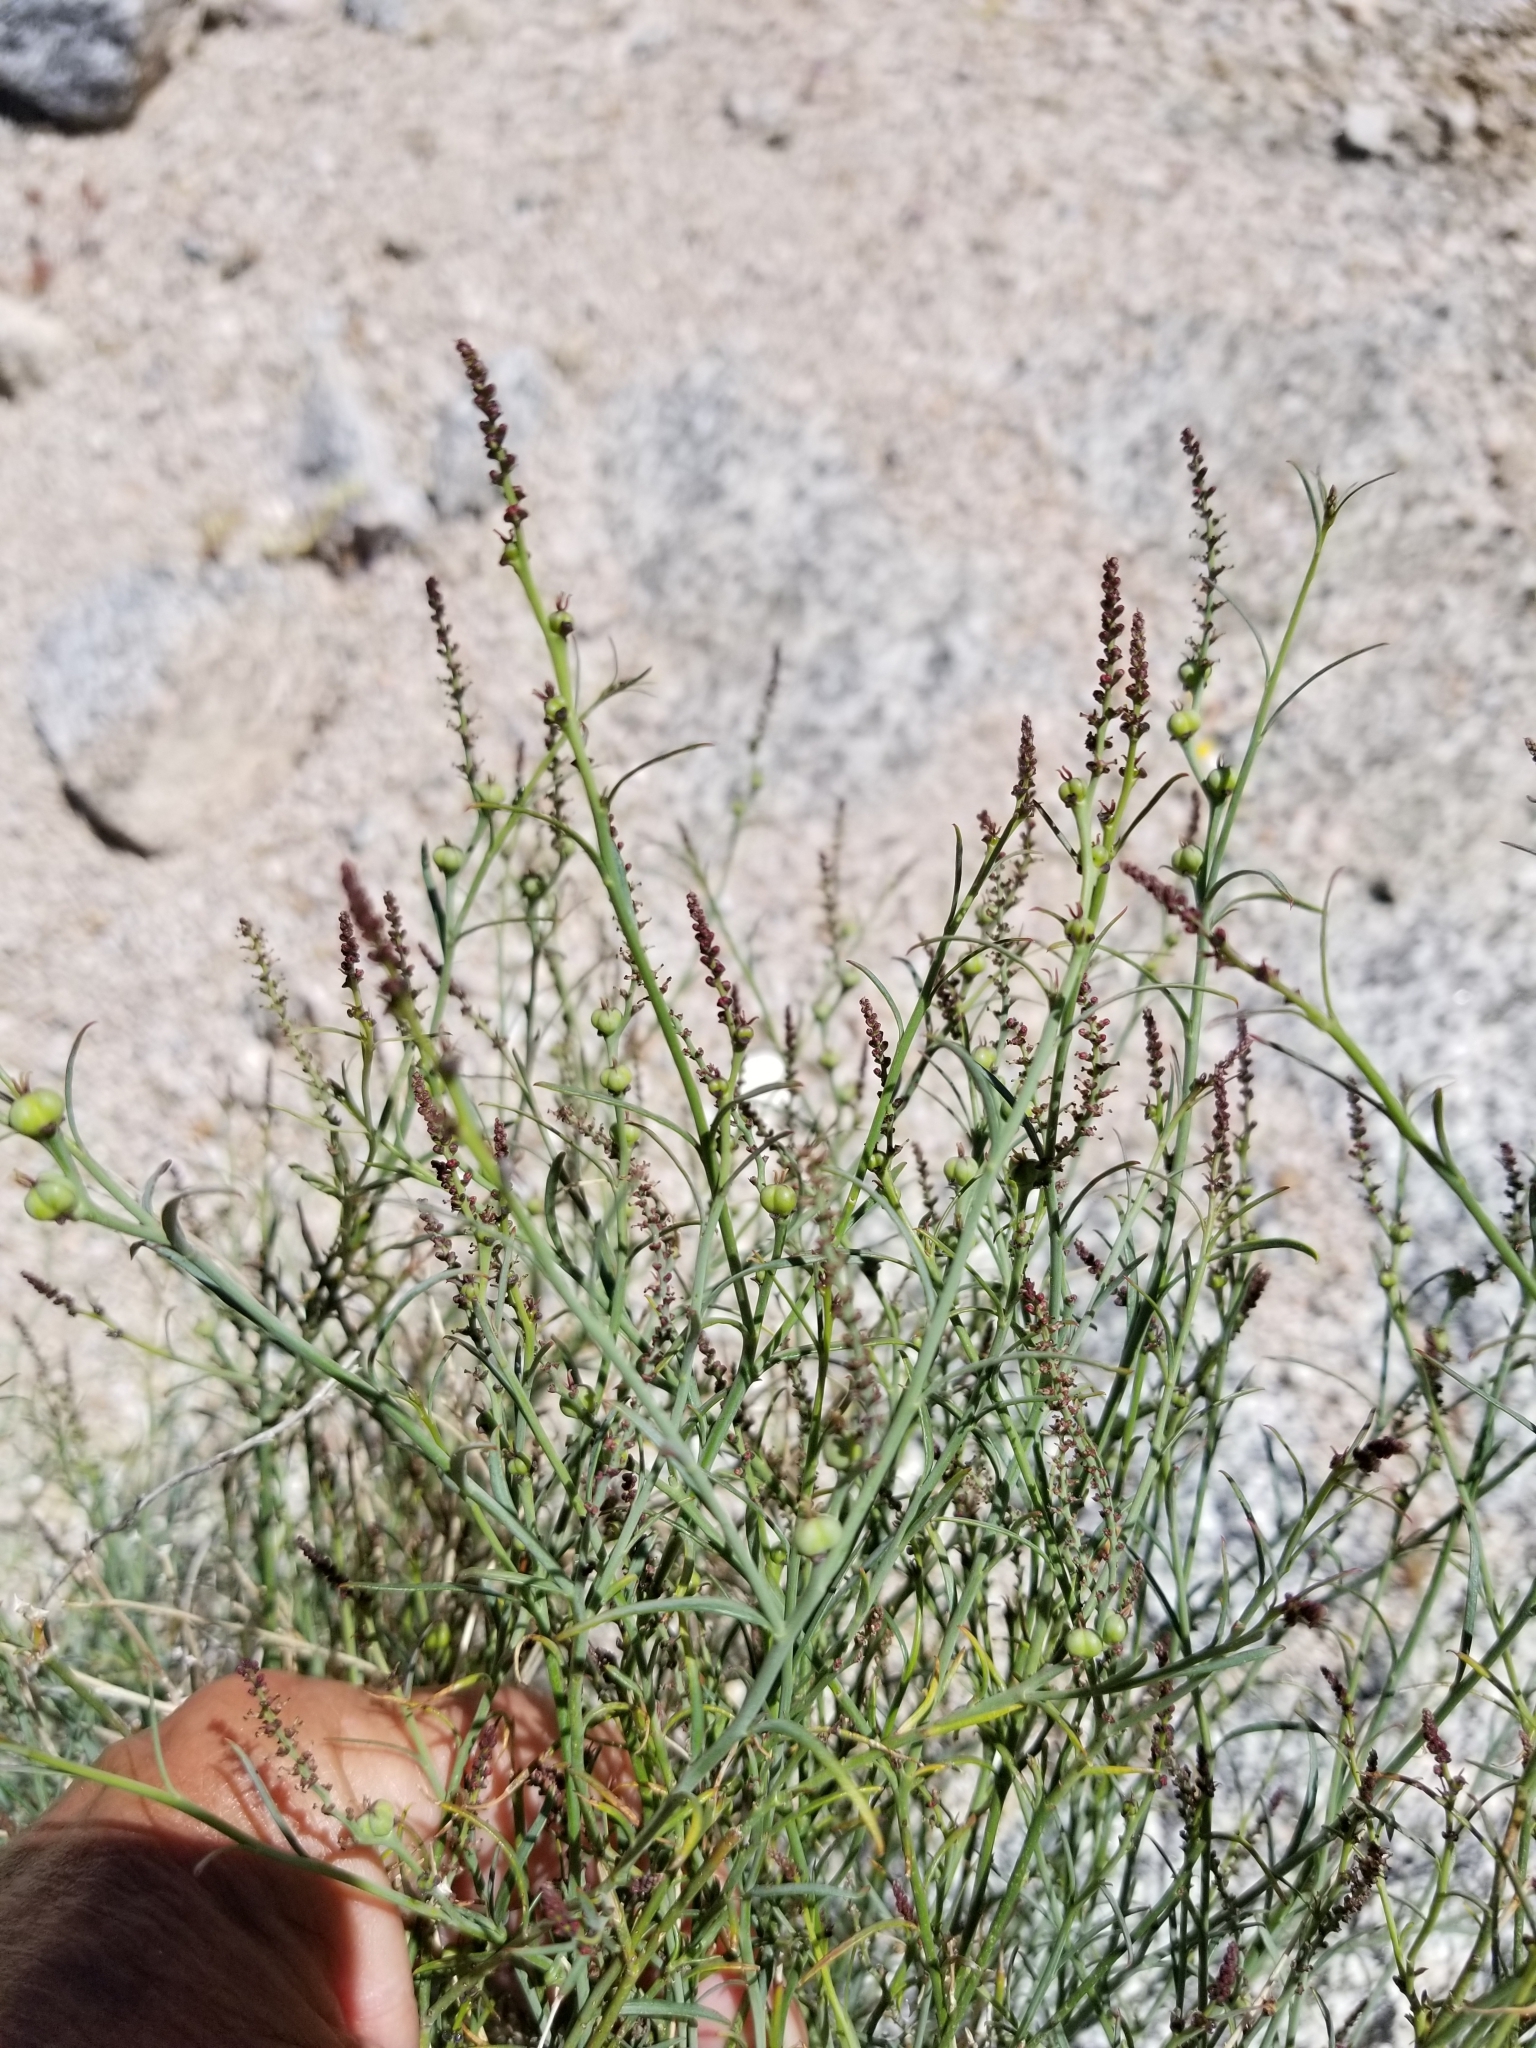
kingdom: Plantae
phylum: Tracheophyta
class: Magnoliopsida
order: Malpighiales
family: Euphorbiaceae
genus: Stillingia
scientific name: Stillingia linearifolia
